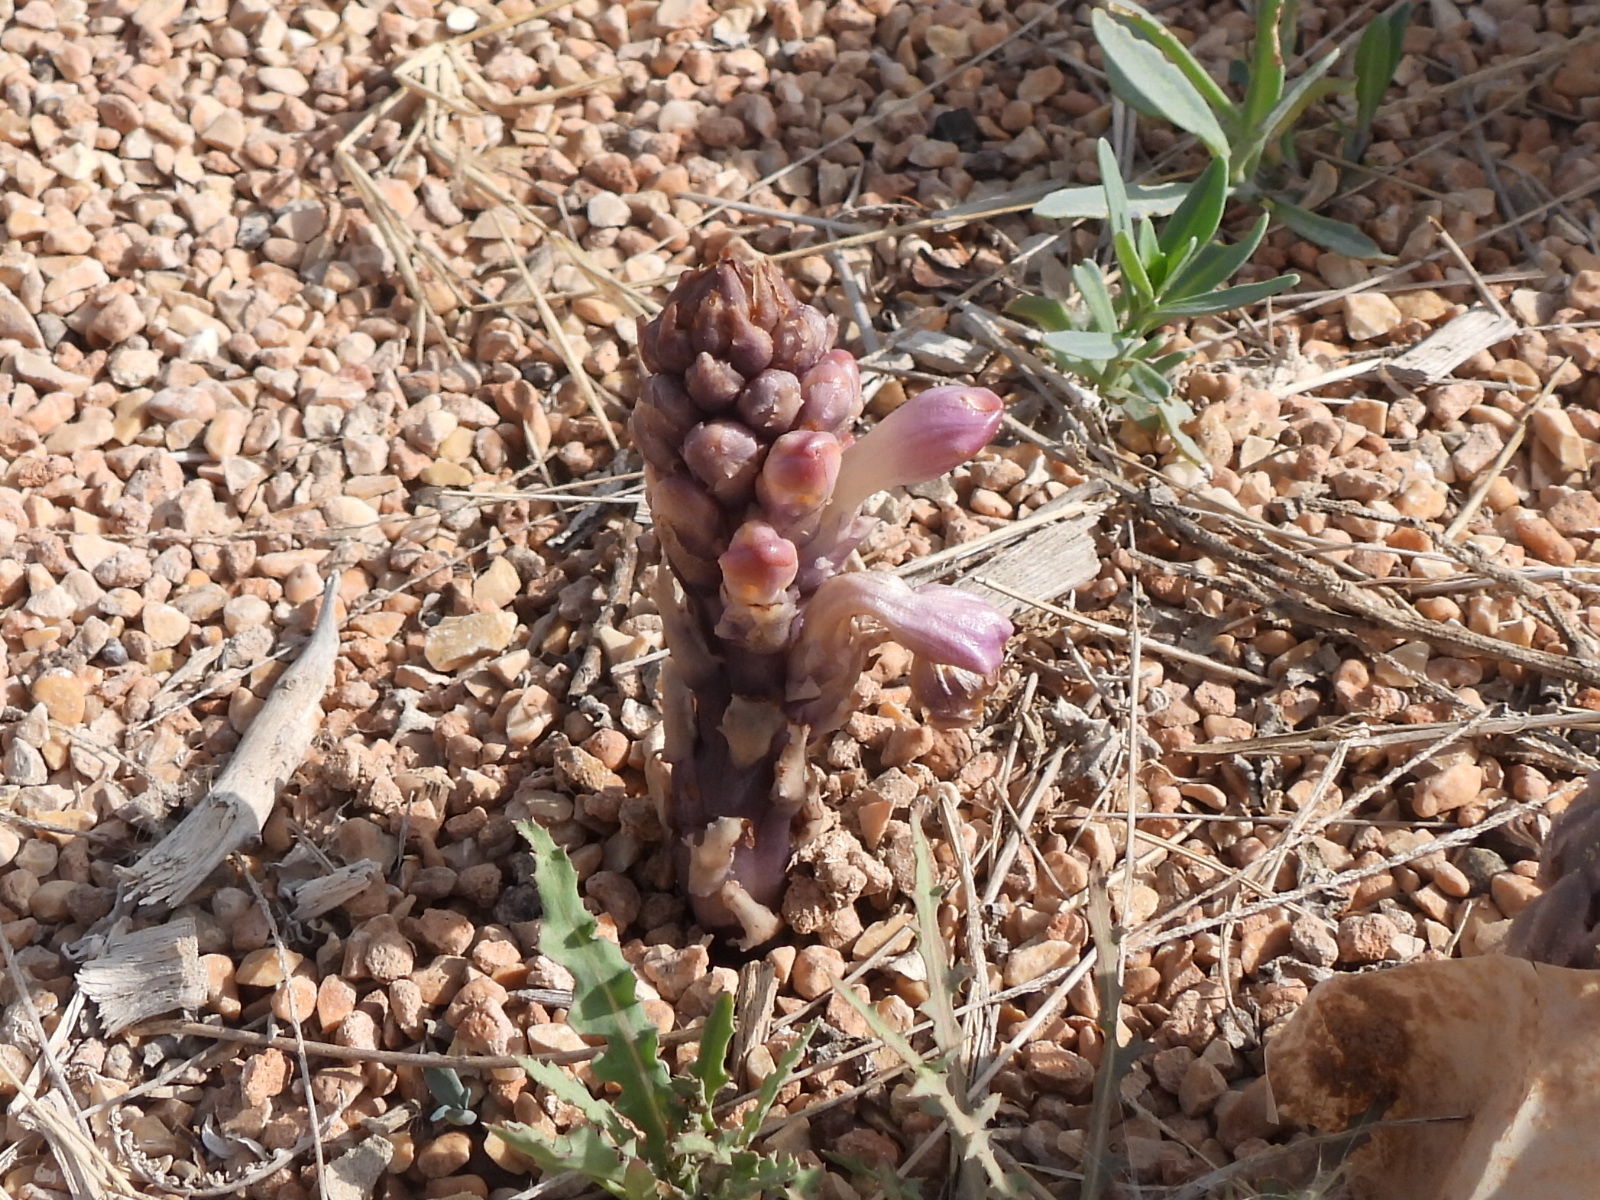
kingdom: Plantae
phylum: Tracheophyta
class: Magnoliopsida
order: Lamiales
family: Orobanchaceae
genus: Cistanche
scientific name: Cistanche tubulosa
